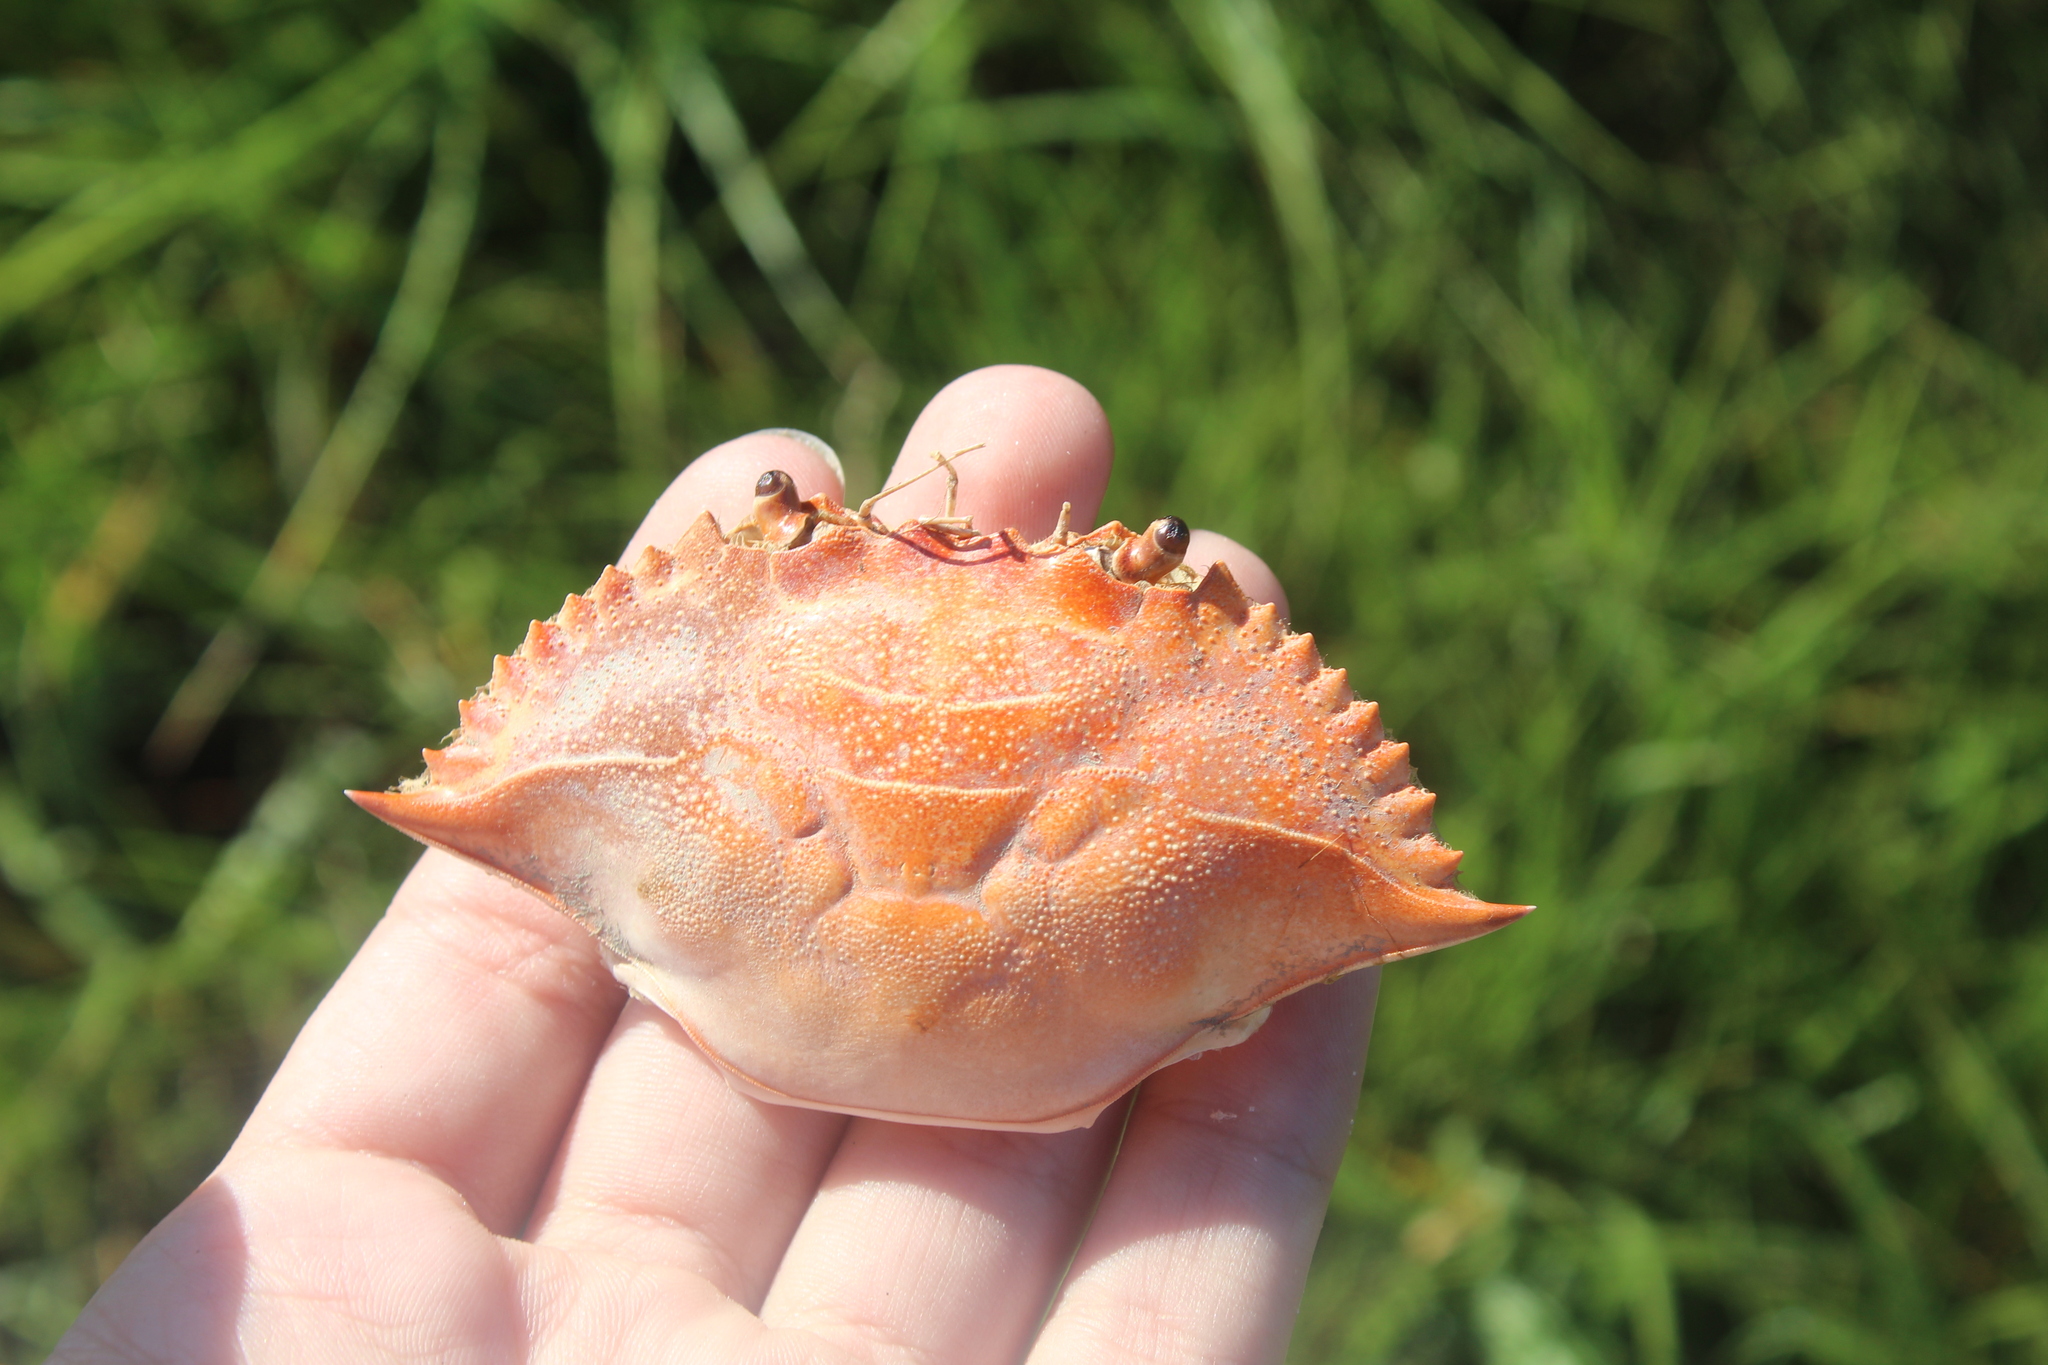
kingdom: Animalia
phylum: Arthropoda
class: Malacostraca
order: Decapoda
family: Portunidae
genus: Callinectes
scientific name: Callinectes sapidus
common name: Blue crab
